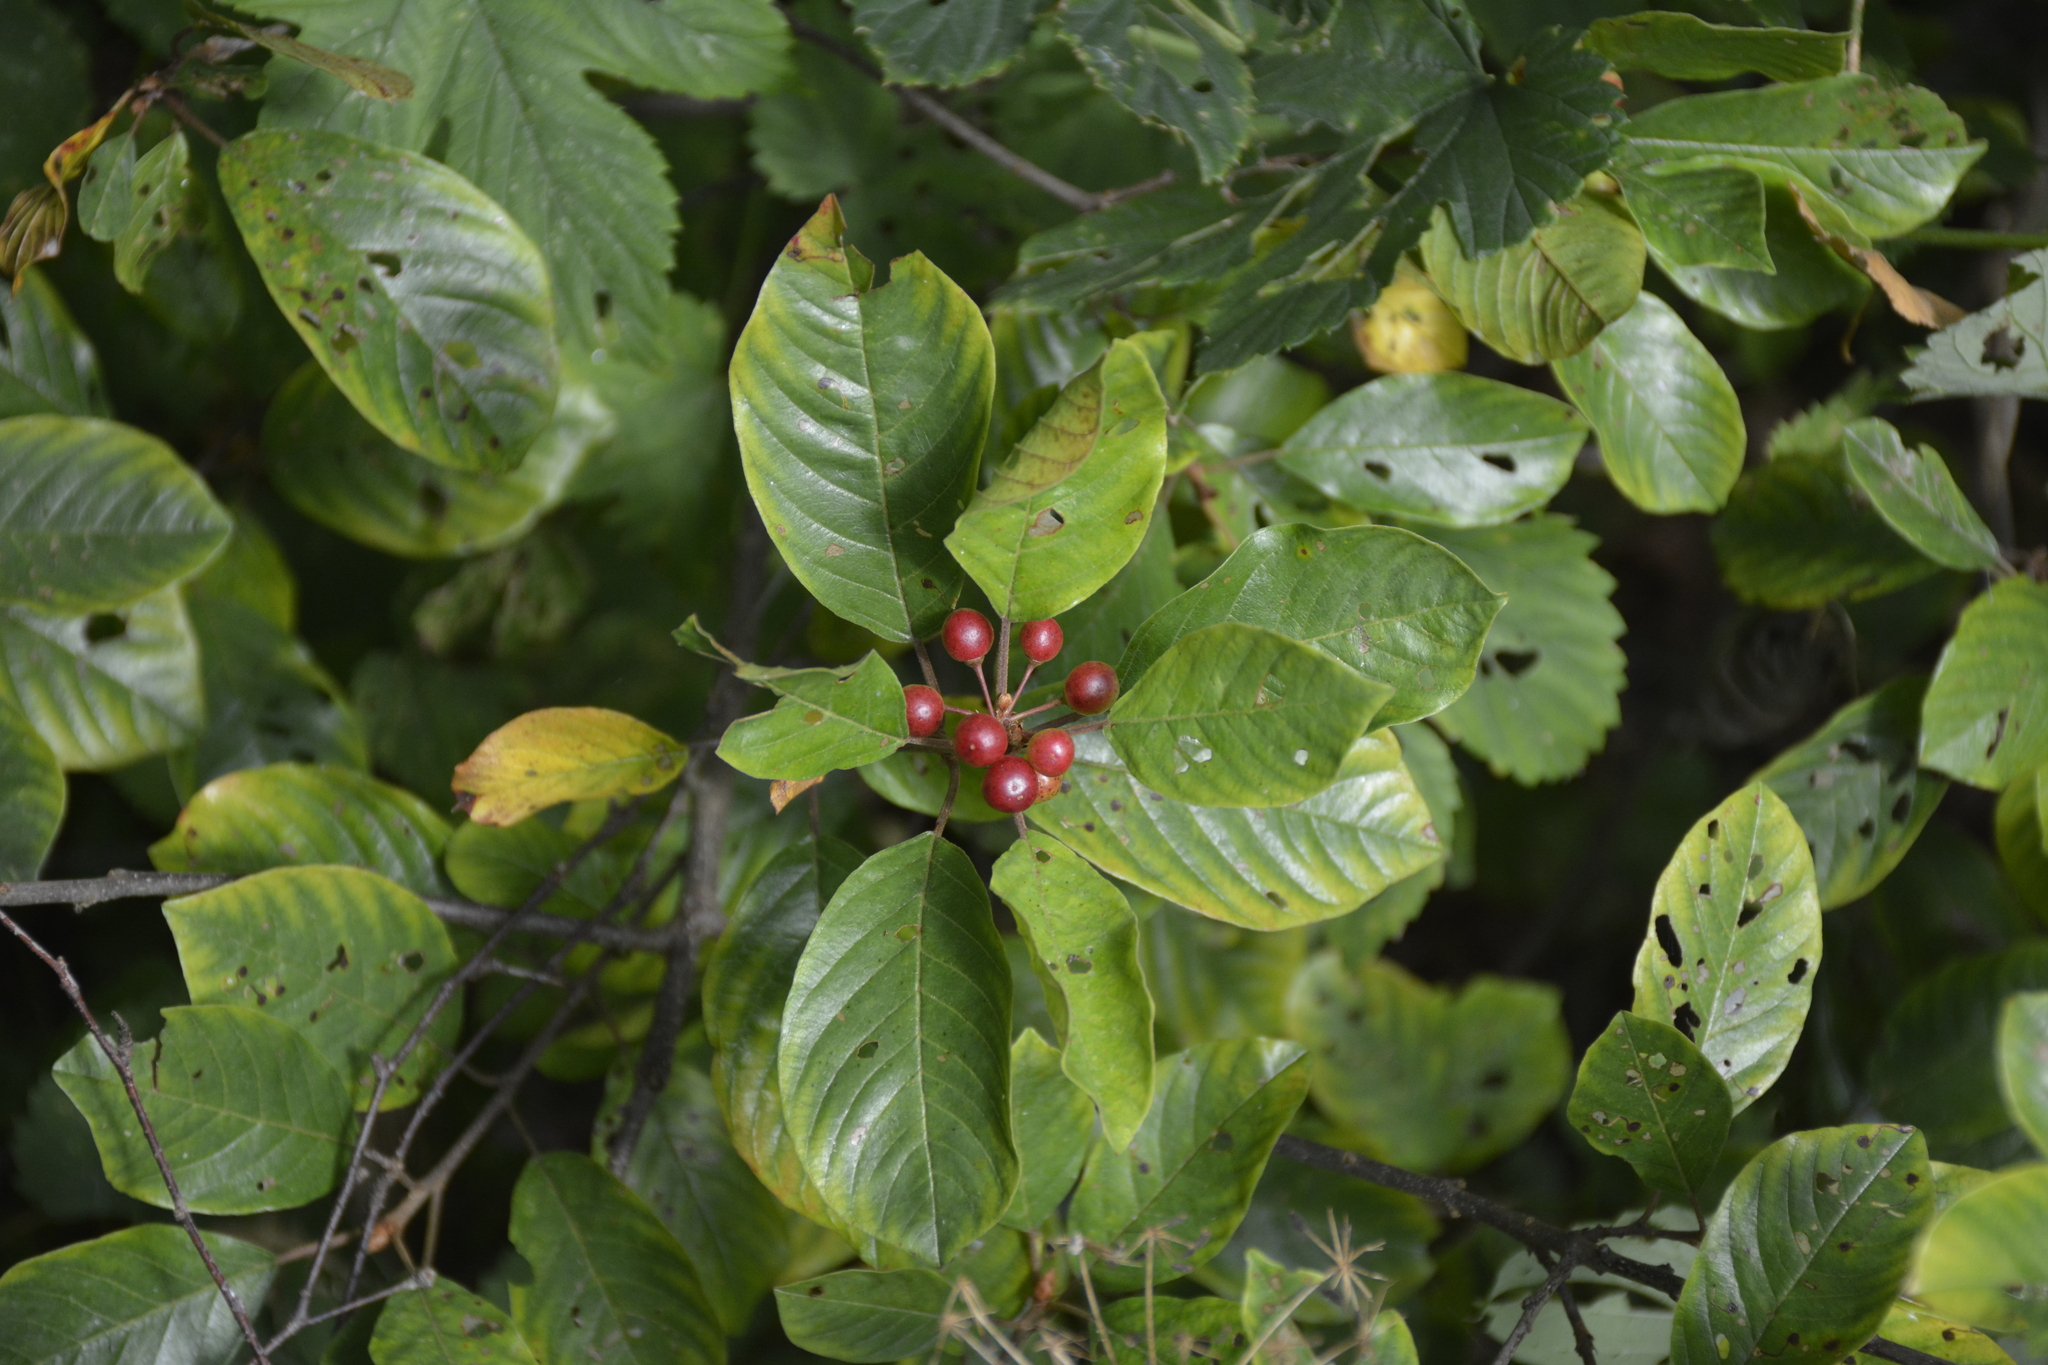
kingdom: Plantae
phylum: Tracheophyta
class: Magnoliopsida
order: Rosales
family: Rhamnaceae
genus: Frangula
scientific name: Frangula alnus
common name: Alder buckthorn
